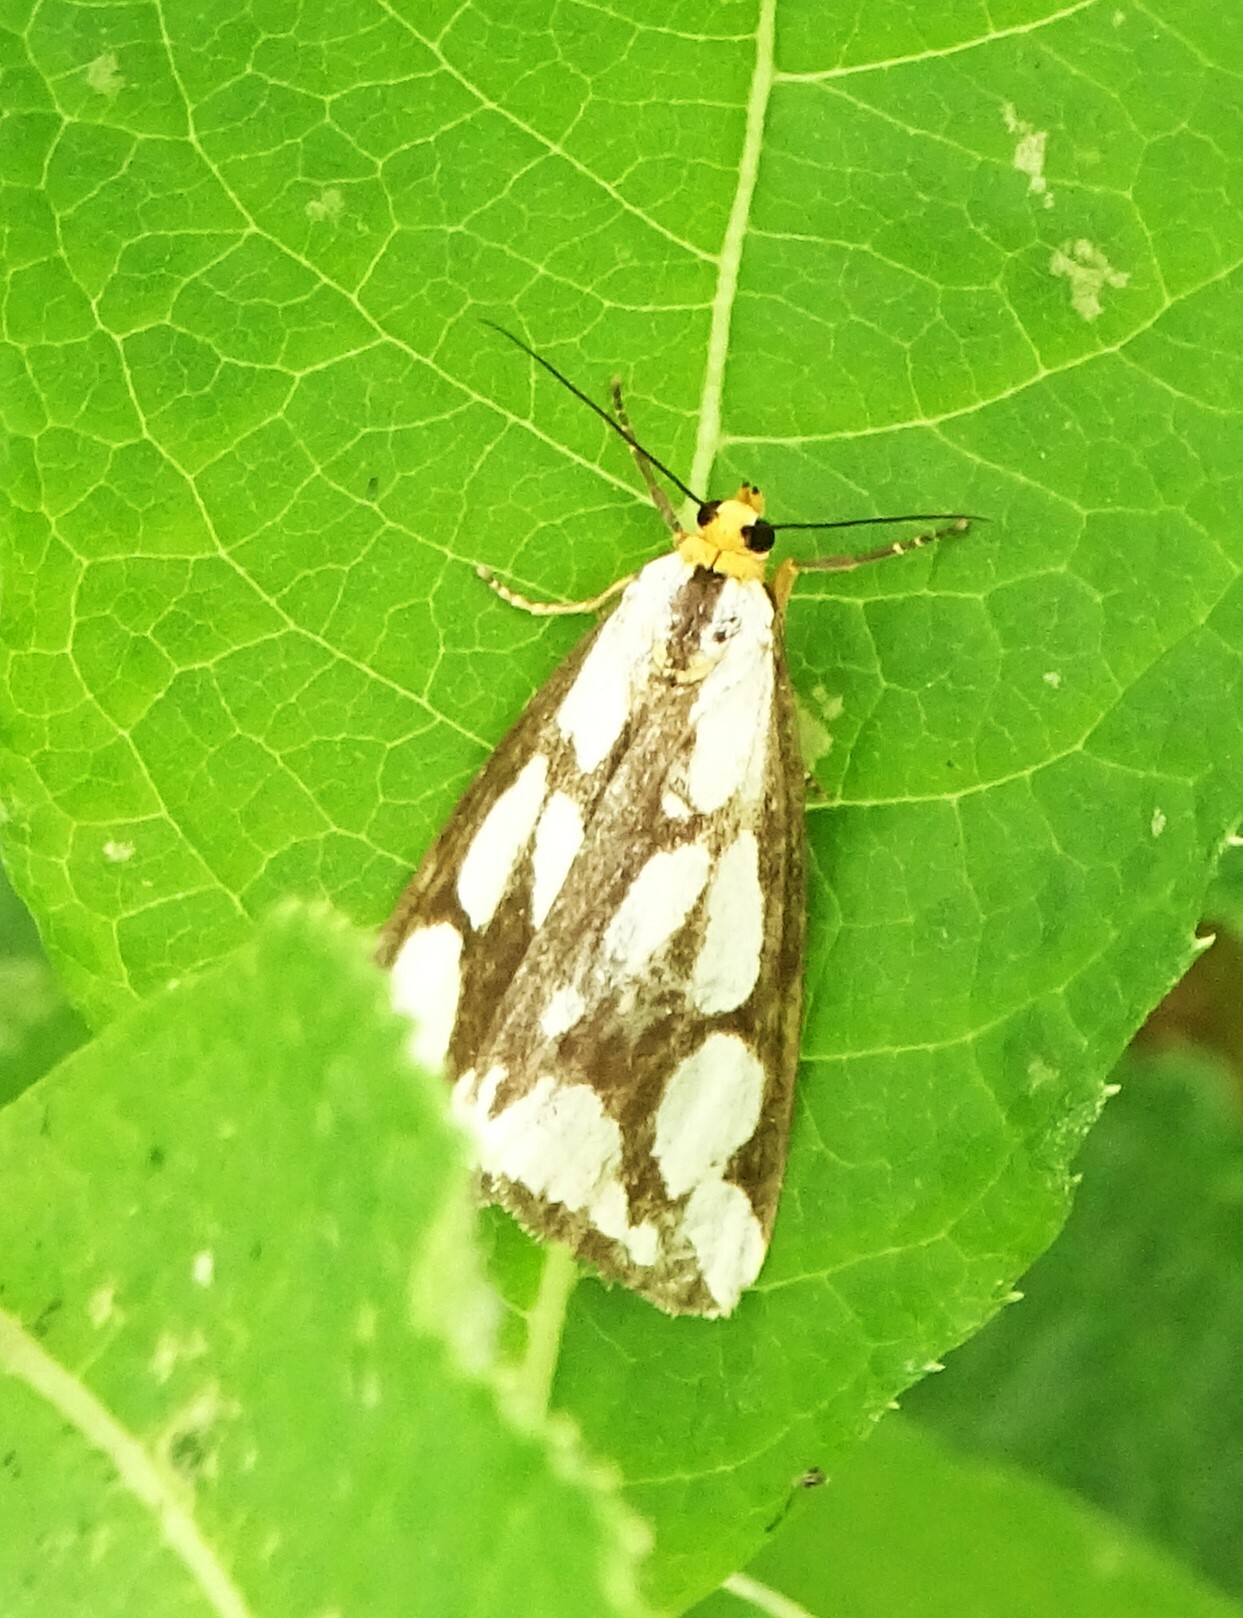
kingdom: Animalia
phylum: Arthropoda
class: Insecta
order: Lepidoptera
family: Erebidae
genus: Haploa
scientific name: Haploa confusa
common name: Confused haploa moth
